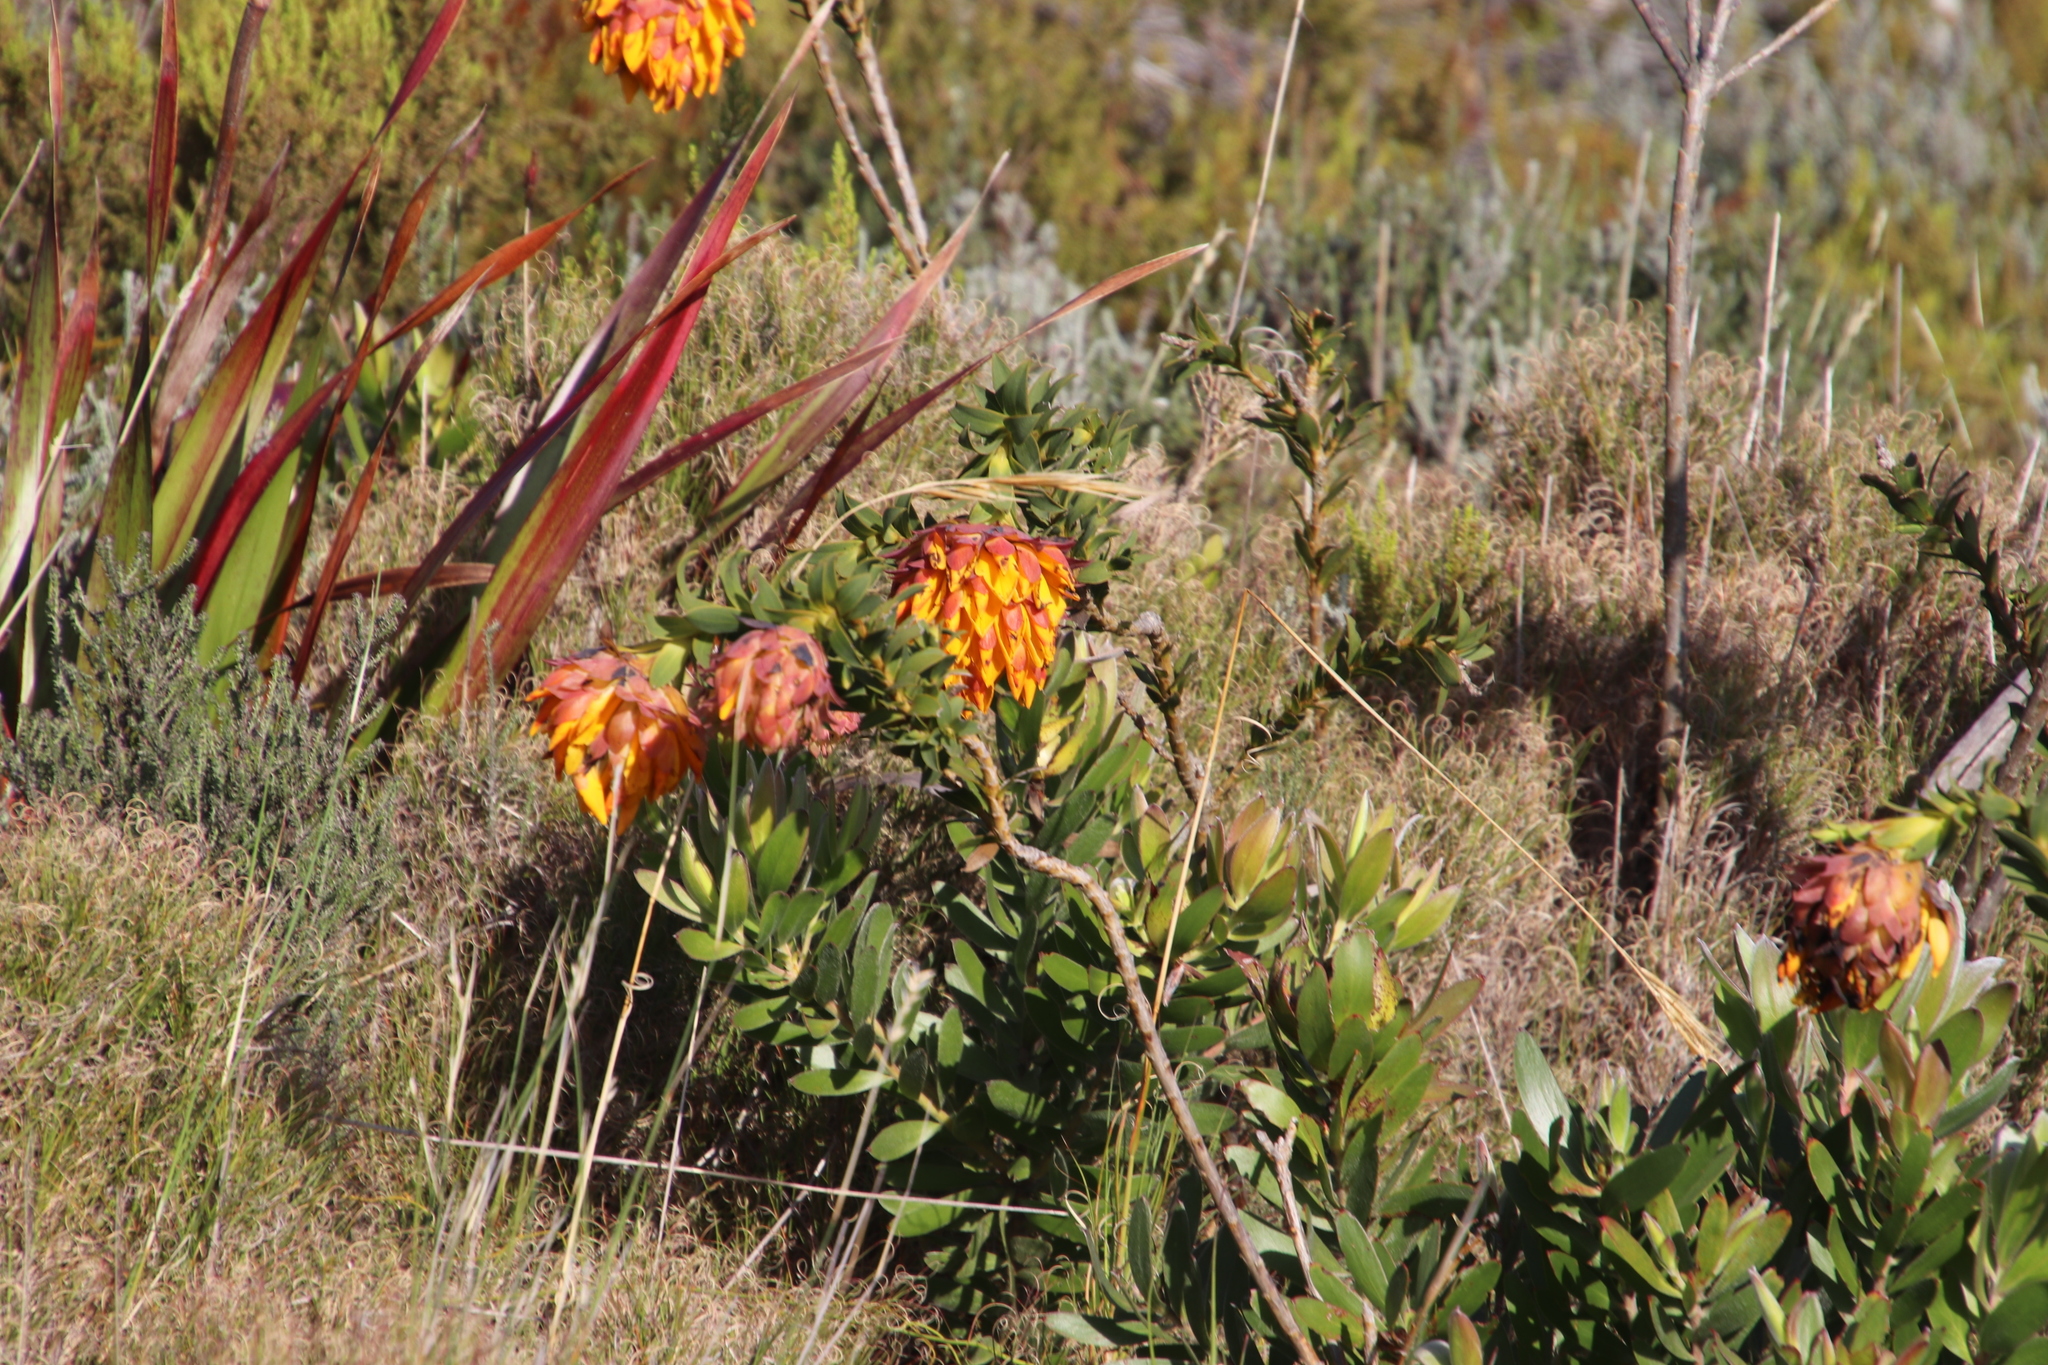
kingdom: Plantae
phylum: Tracheophyta
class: Magnoliopsida
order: Fabales
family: Fabaceae
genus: Liparia
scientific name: Liparia splendens
